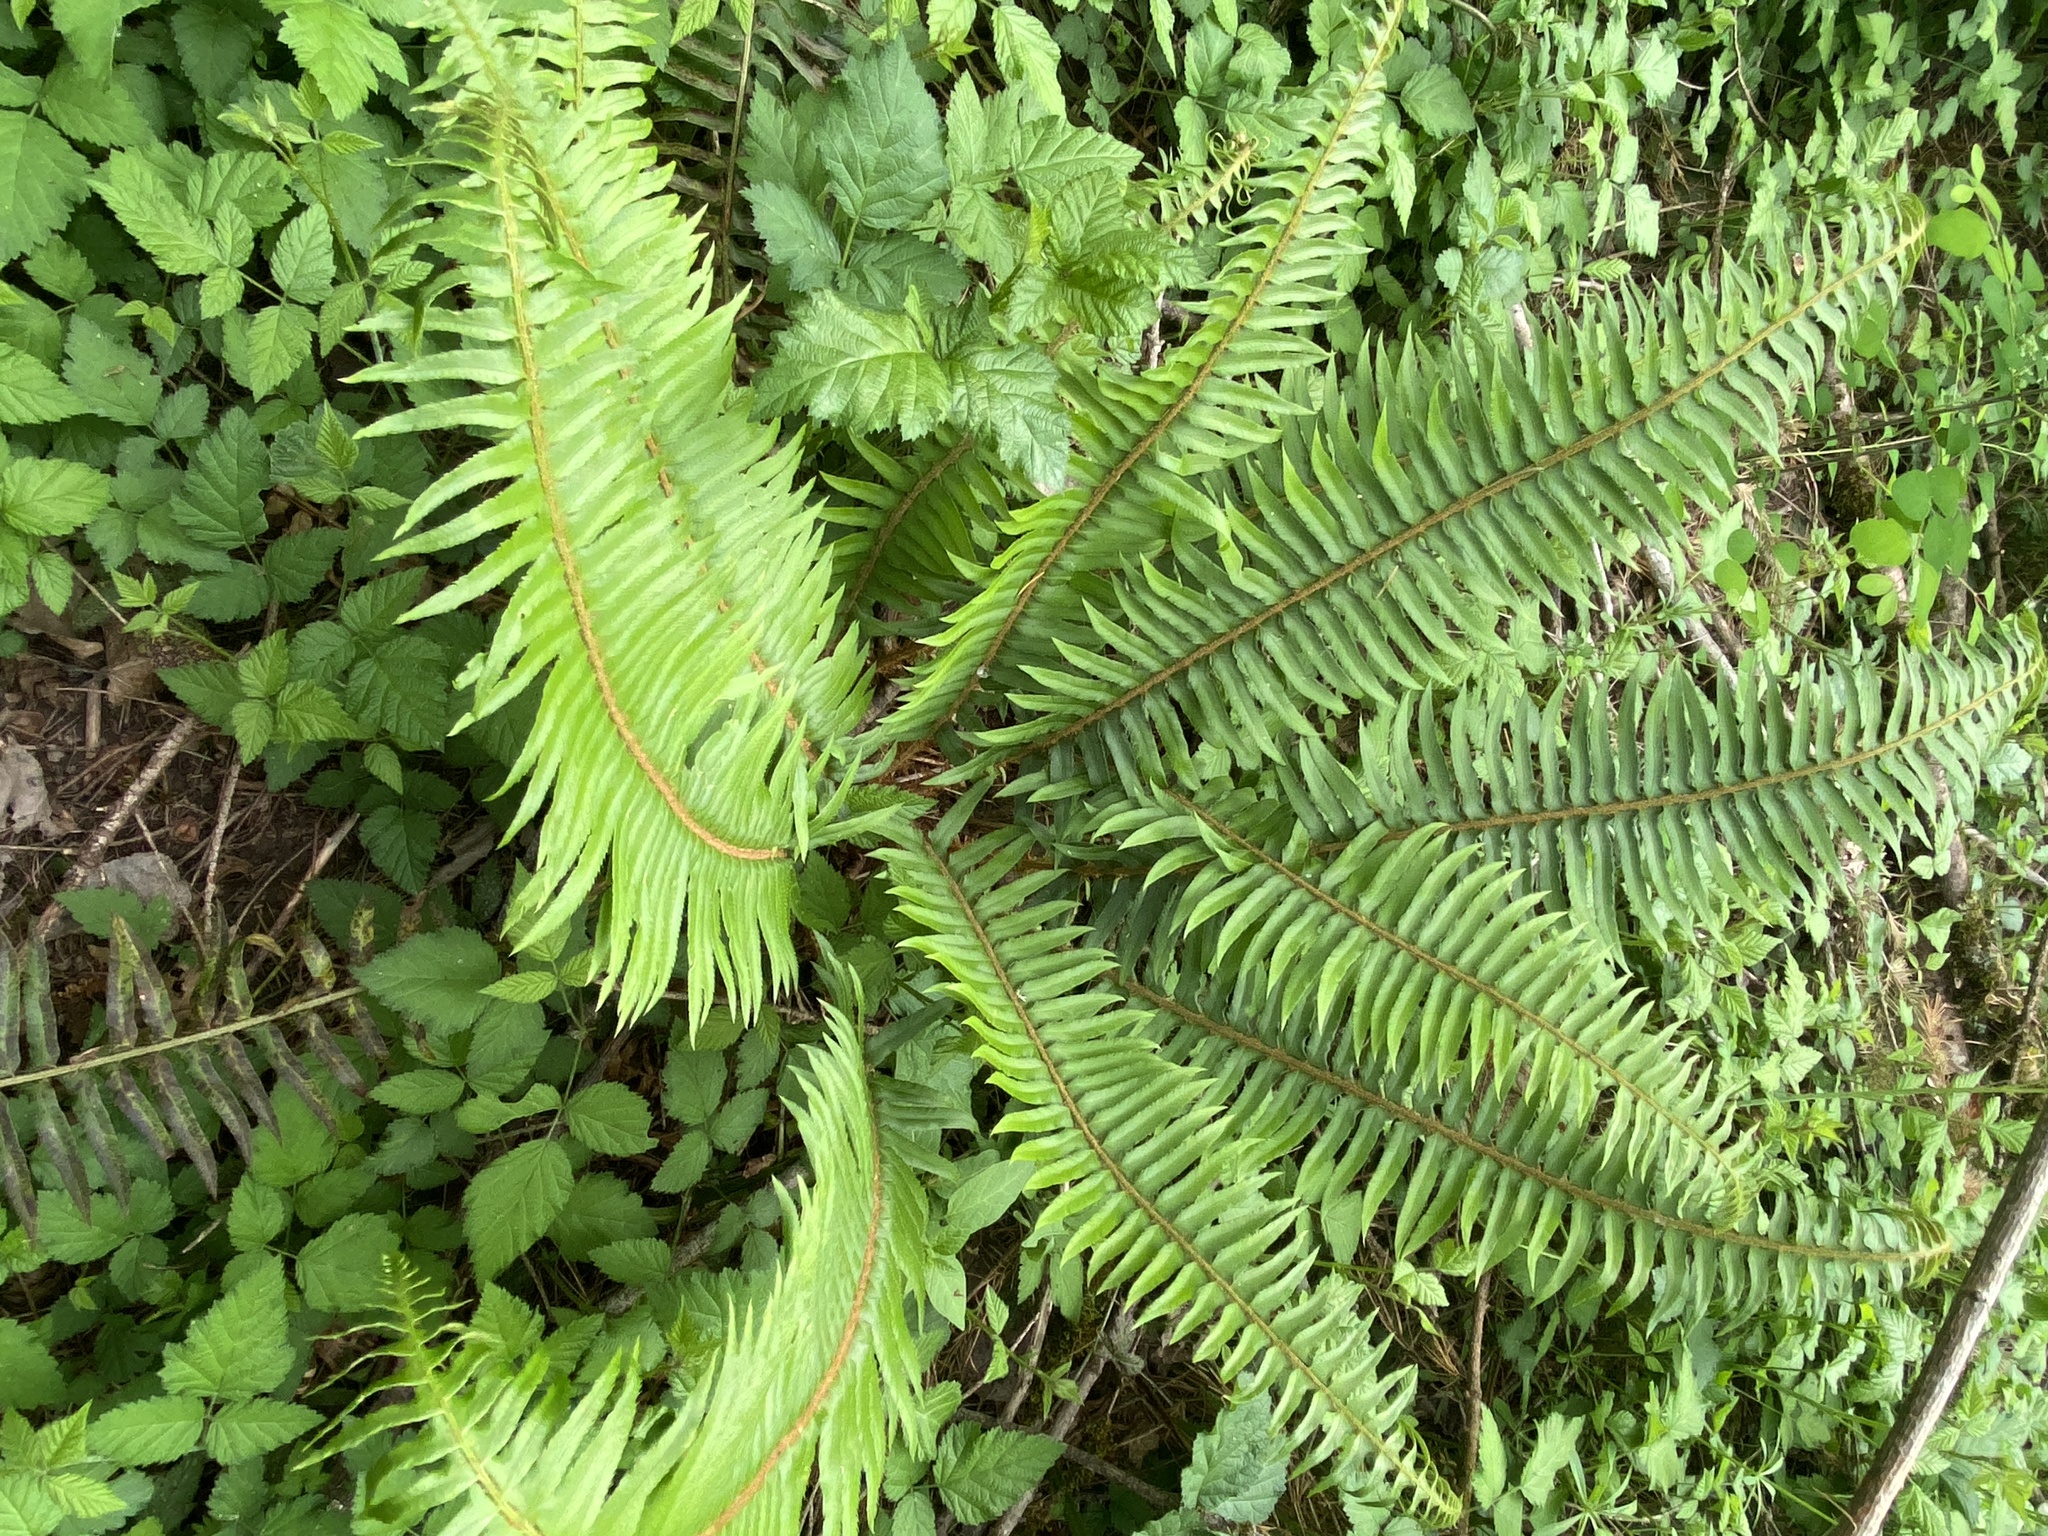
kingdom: Plantae
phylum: Tracheophyta
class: Polypodiopsida
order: Polypodiales
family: Dryopteridaceae
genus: Polystichum
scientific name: Polystichum munitum
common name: Western sword-fern
